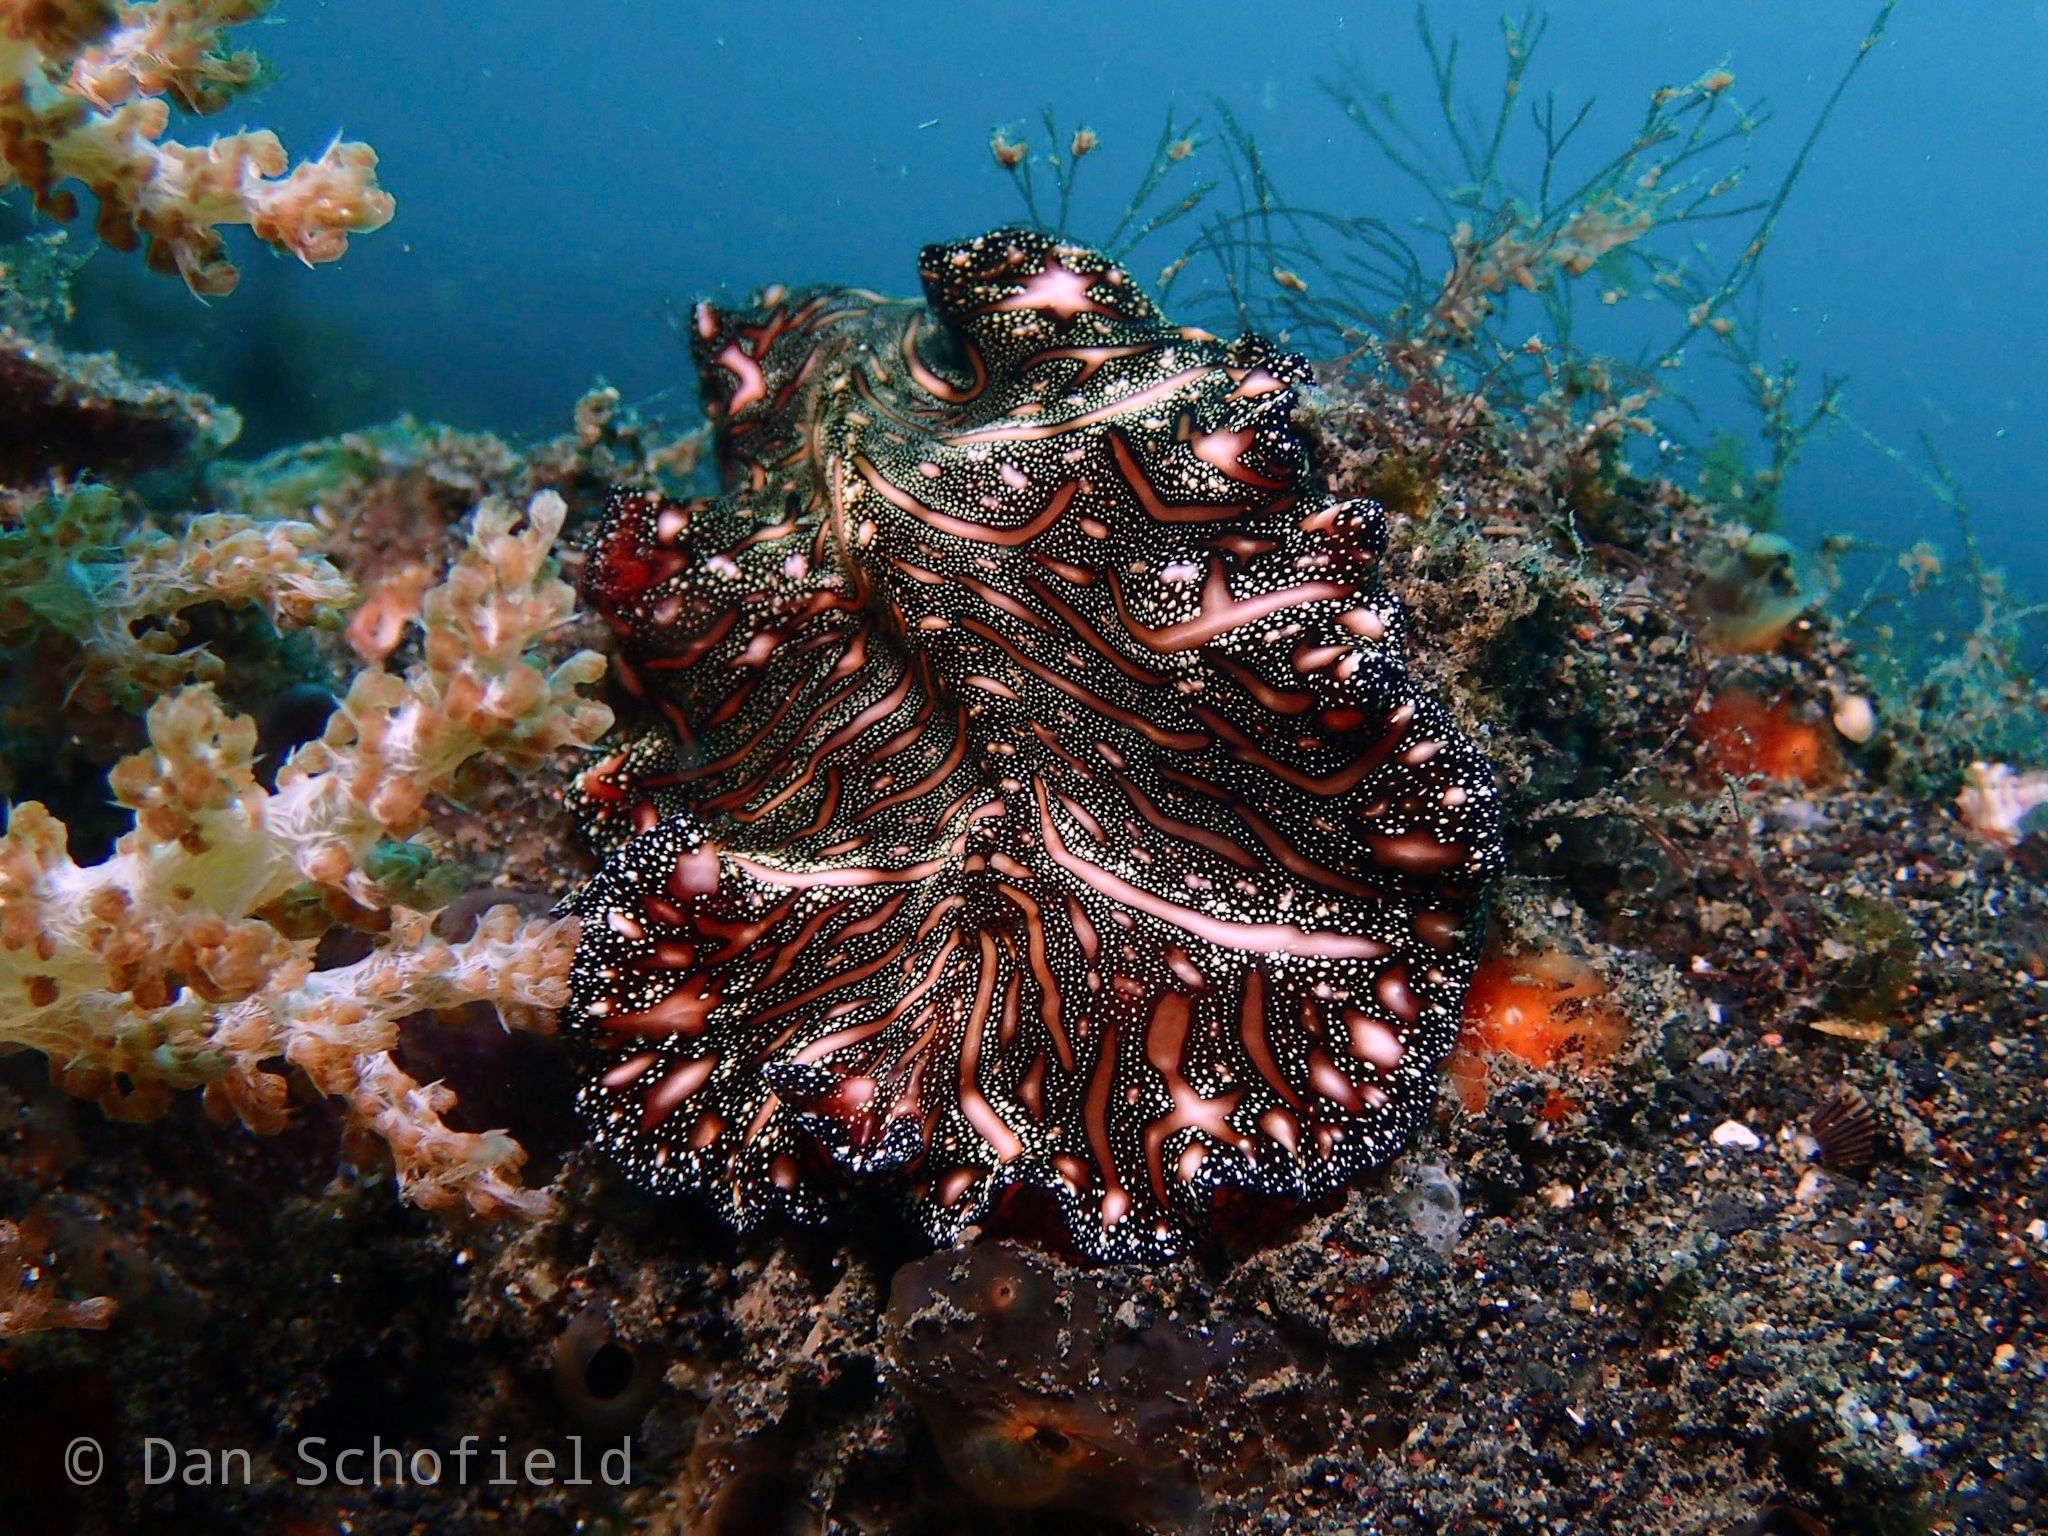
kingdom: Animalia
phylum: Platyhelminthes
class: Turbellaria
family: Pseudocerotidae
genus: Pseudobiceros
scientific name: Pseudobiceros bedfordi
